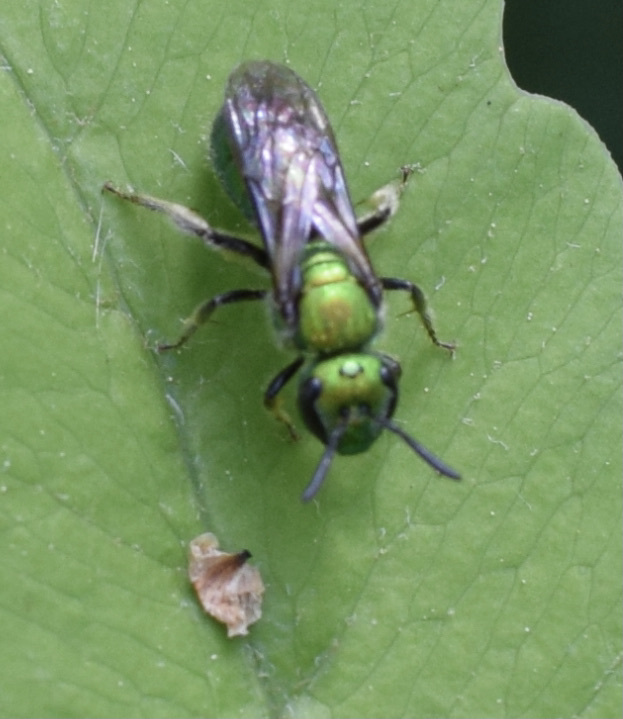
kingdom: Animalia
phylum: Arthropoda
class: Insecta
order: Hymenoptera
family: Halictidae
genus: Augochlora
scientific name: Augochlora pura
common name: Pure green sweat bee
